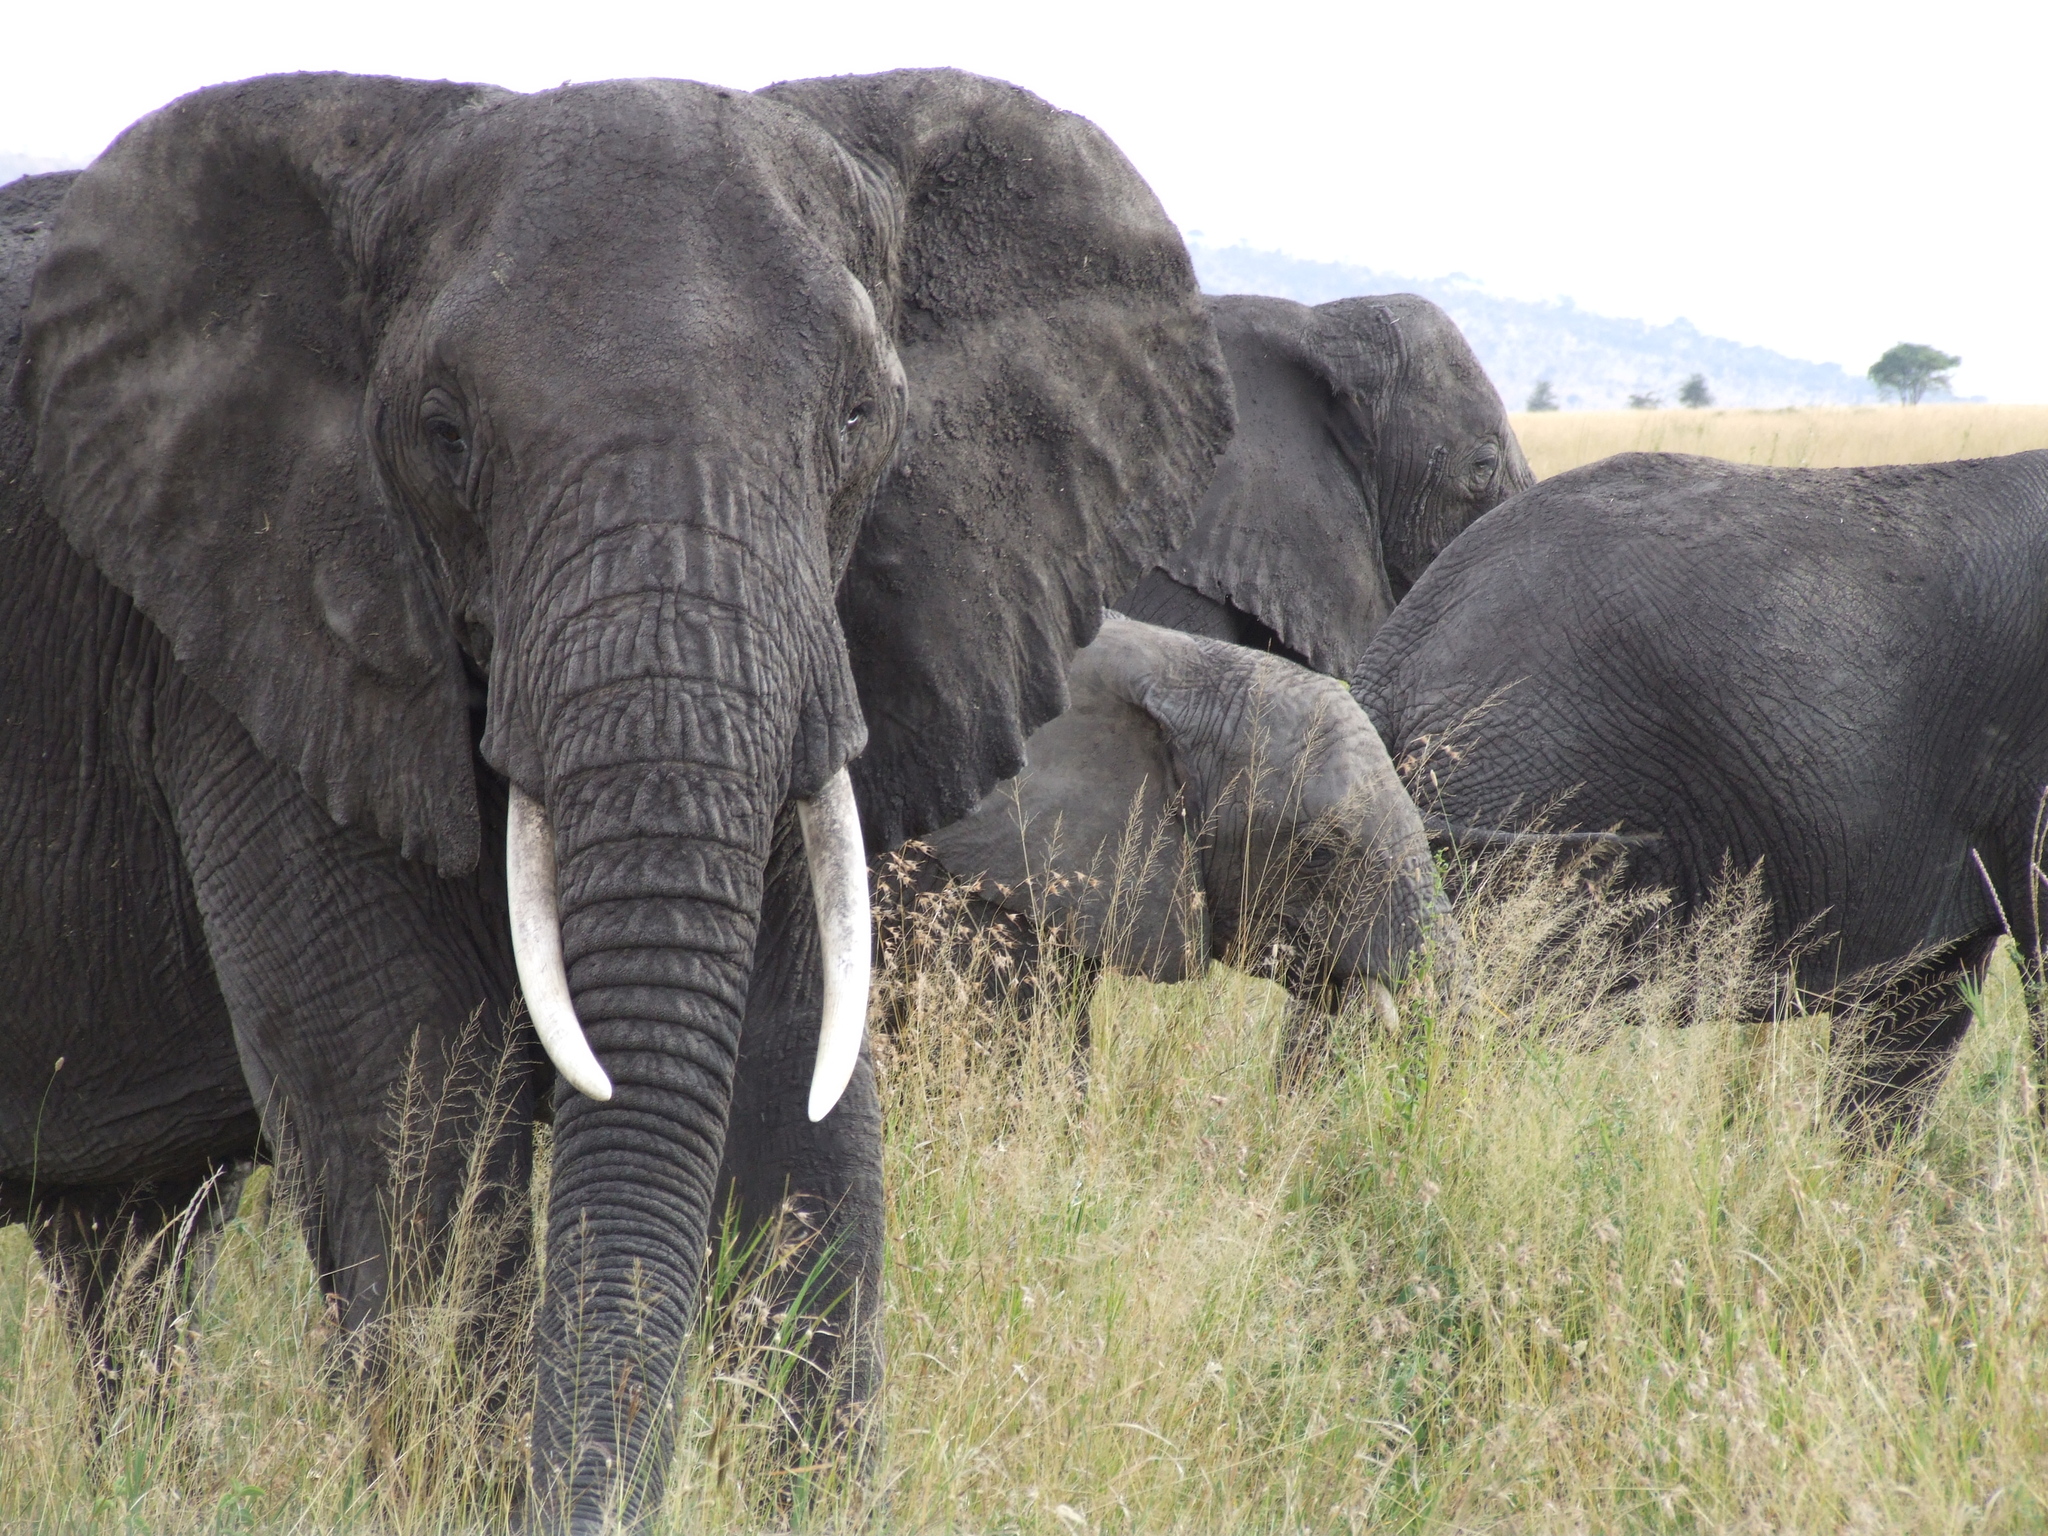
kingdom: Animalia
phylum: Chordata
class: Mammalia
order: Proboscidea
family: Elephantidae
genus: Loxodonta
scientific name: Loxodonta africana
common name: African elephant
